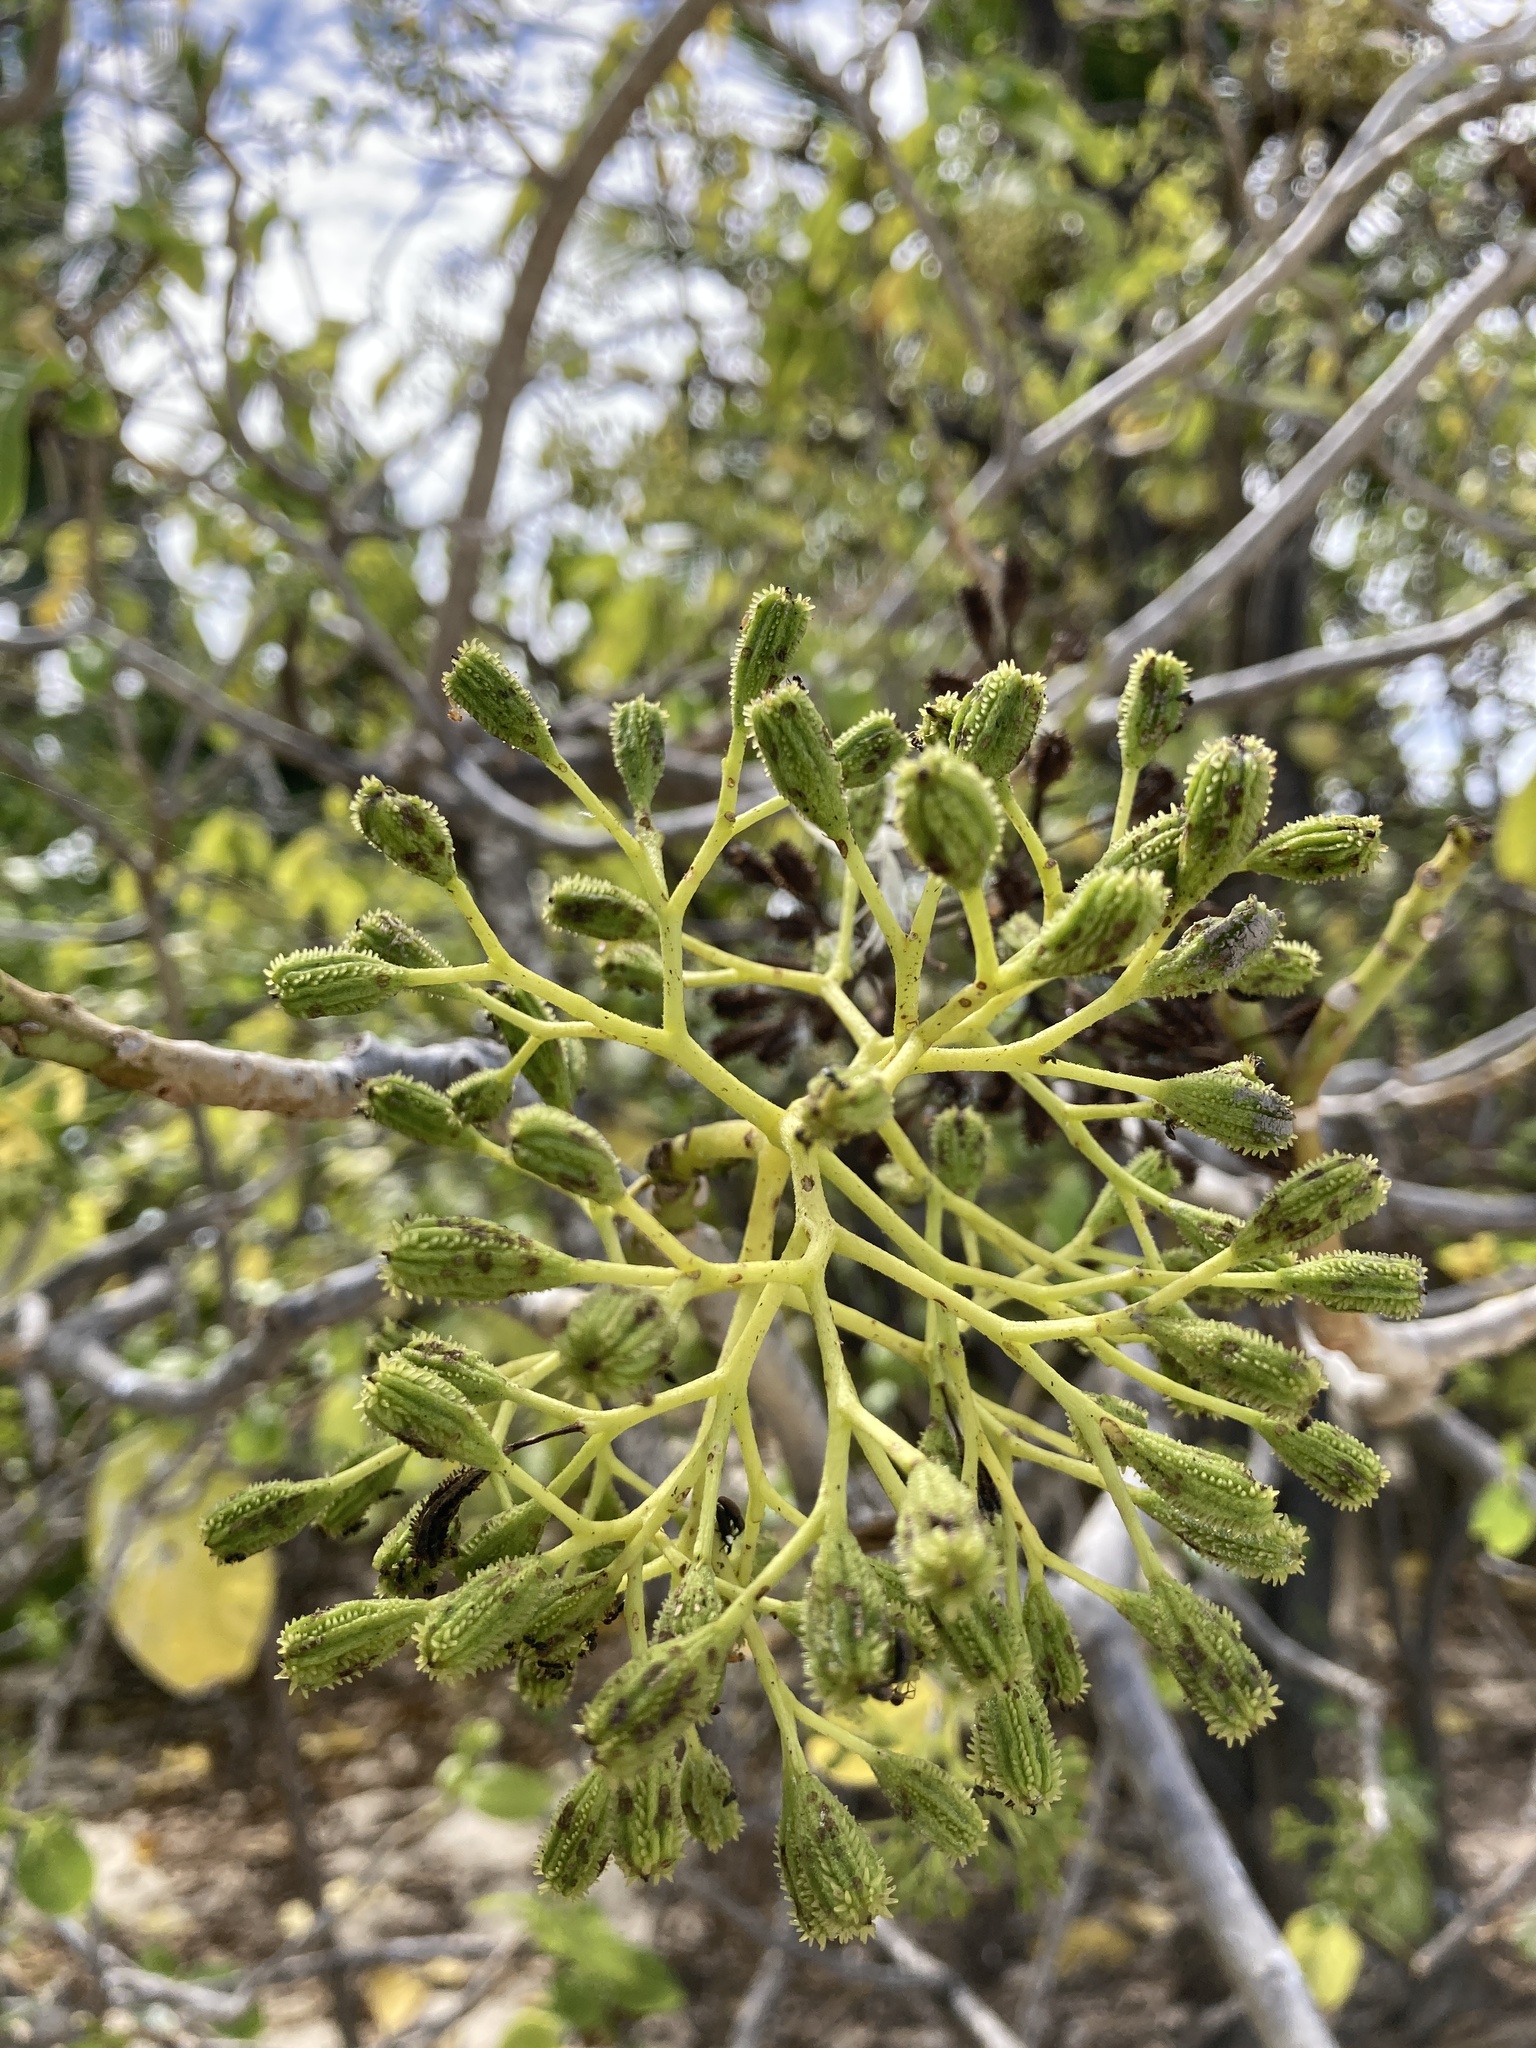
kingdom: Plantae
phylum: Tracheophyta
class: Magnoliopsida
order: Caryophyllales
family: Nyctaginaceae
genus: Ceodes
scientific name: Ceodes
